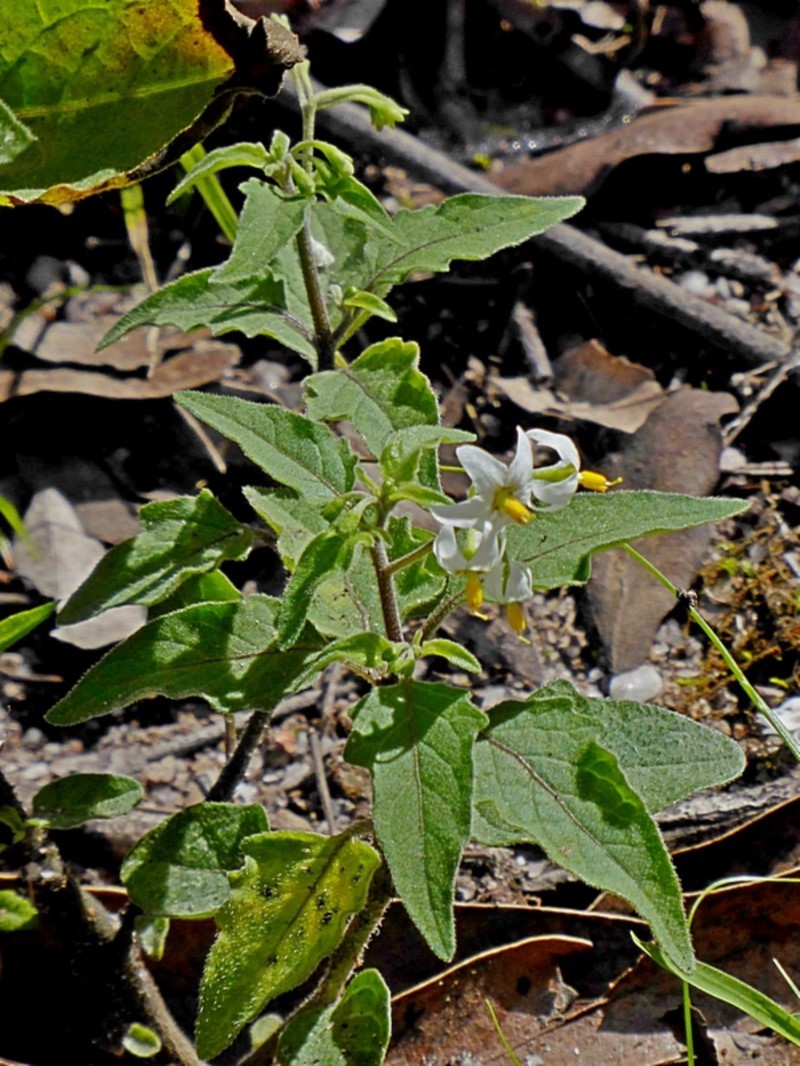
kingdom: Plantae
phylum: Tracheophyta
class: Magnoliopsida
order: Solanales
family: Solanaceae
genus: Solanum
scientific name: Solanum opacum
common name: Green-berry nightshade
